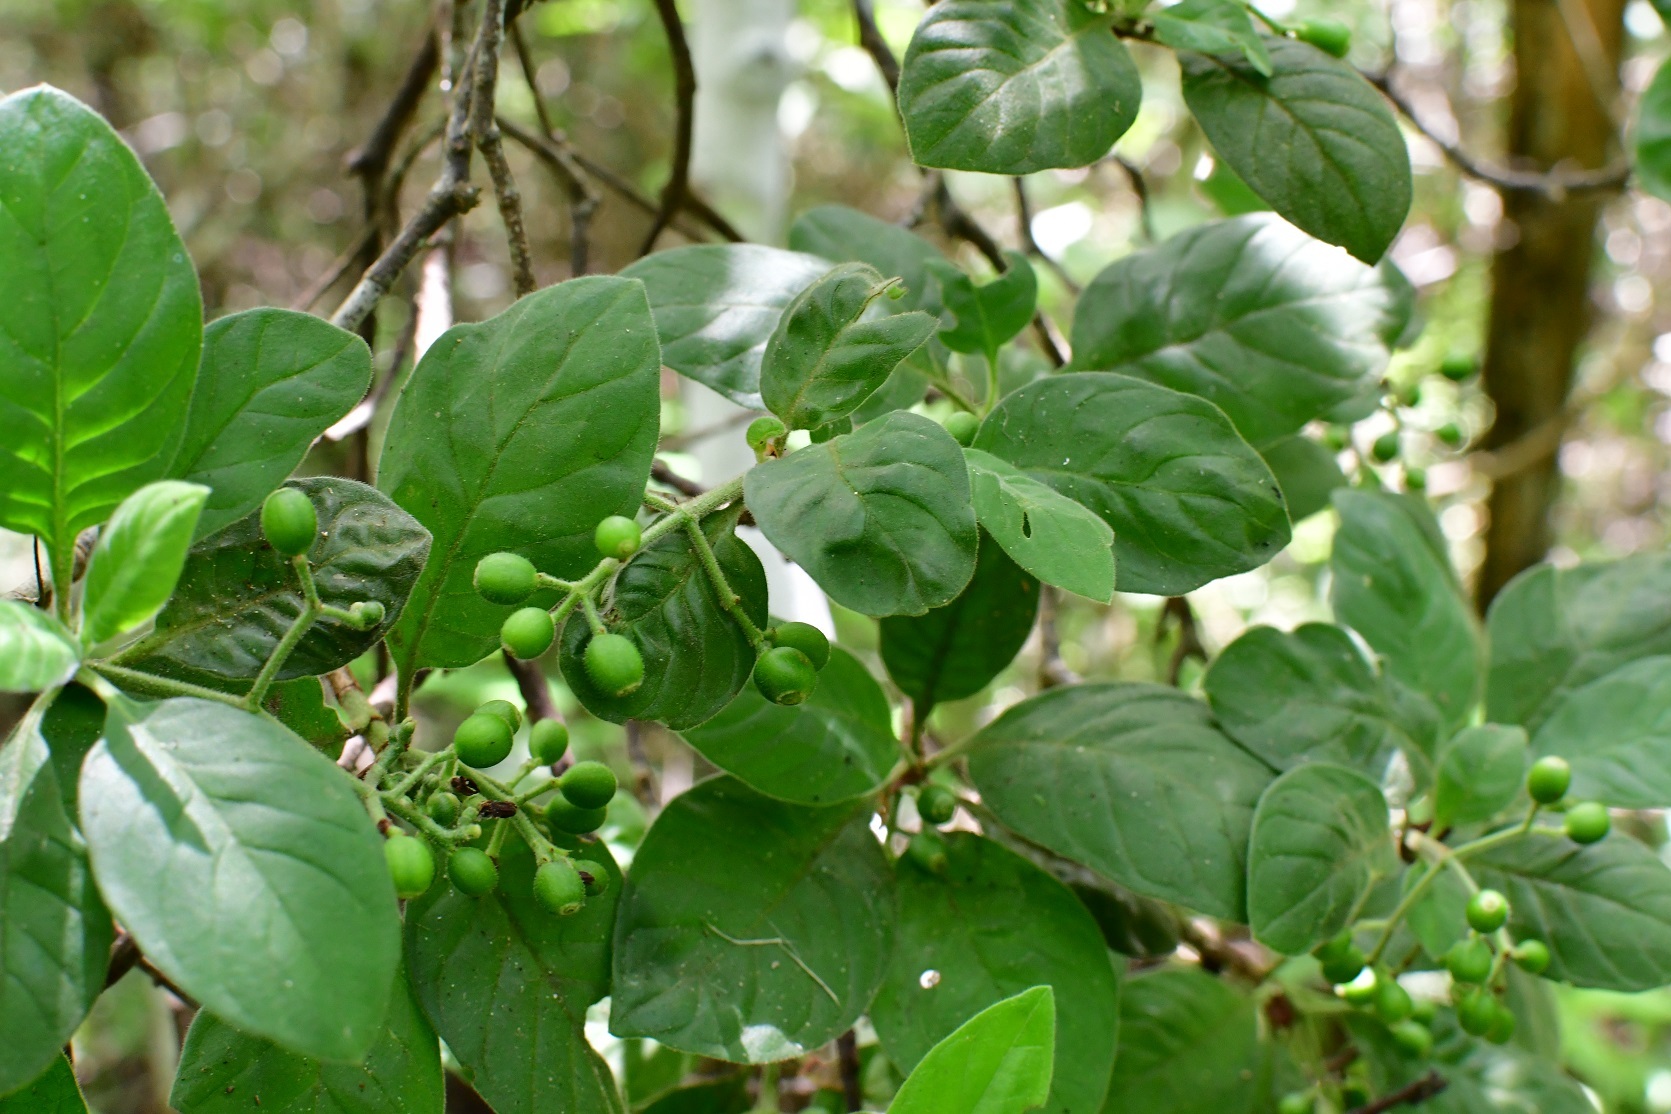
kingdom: Plantae
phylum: Tracheophyta
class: Magnoliopsida
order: Gentianales
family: Rubiaceae
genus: Psychotria
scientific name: Psychotria erythrocarpa
